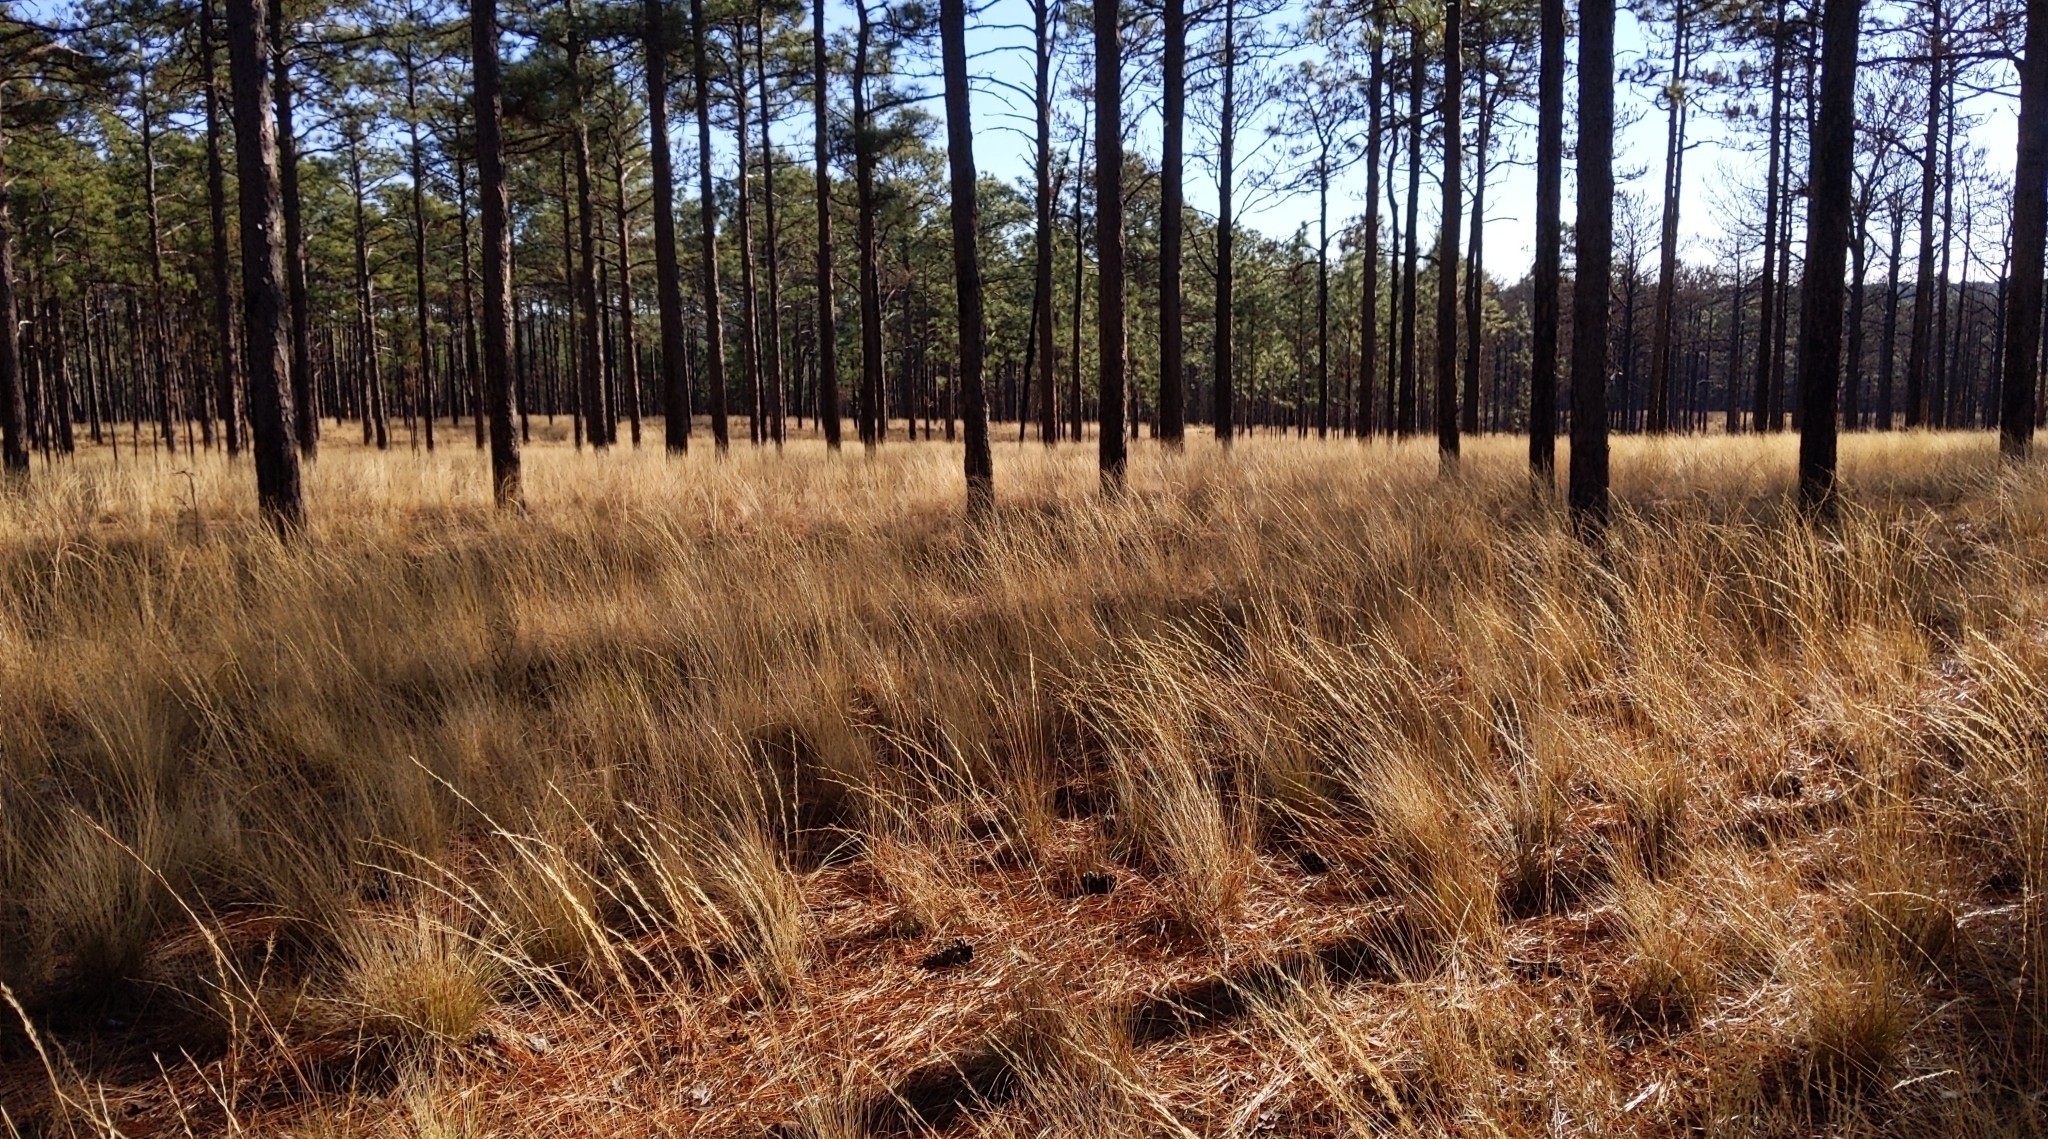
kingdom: Plantae
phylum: Tracheophyta
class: Liliopsida
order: Poales
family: Poaceae
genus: Aristida
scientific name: Aristida stricta
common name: Pineland three-awn
